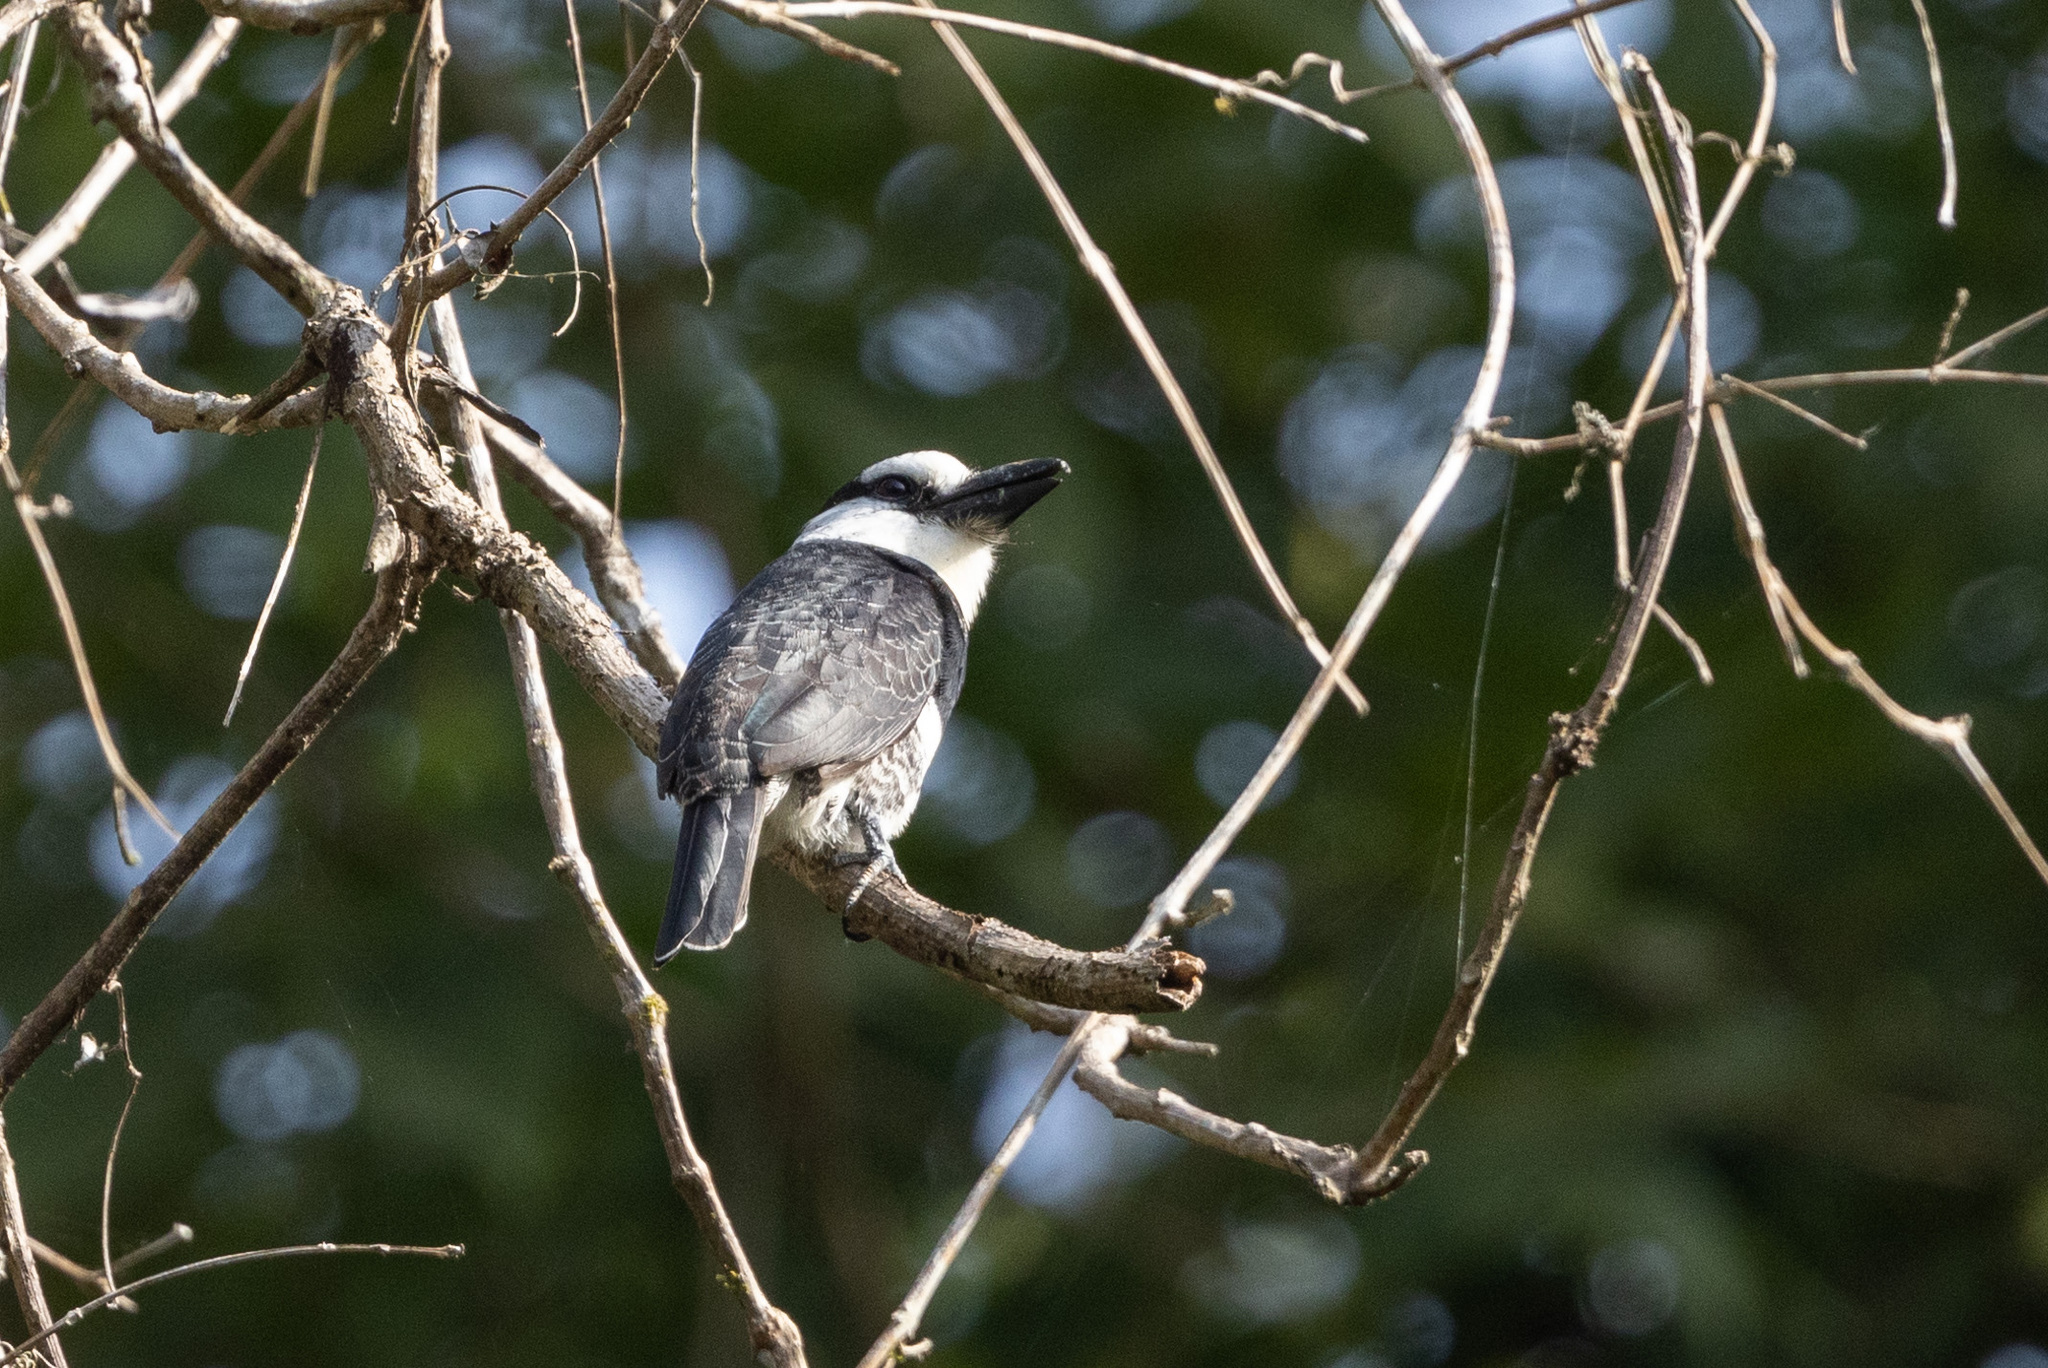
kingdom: Animalia
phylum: Chordata
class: Aves
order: Piciformes
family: Bucconidae
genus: Notharchus
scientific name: Notharchus hyperrhynchus
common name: White-necked puffbird
